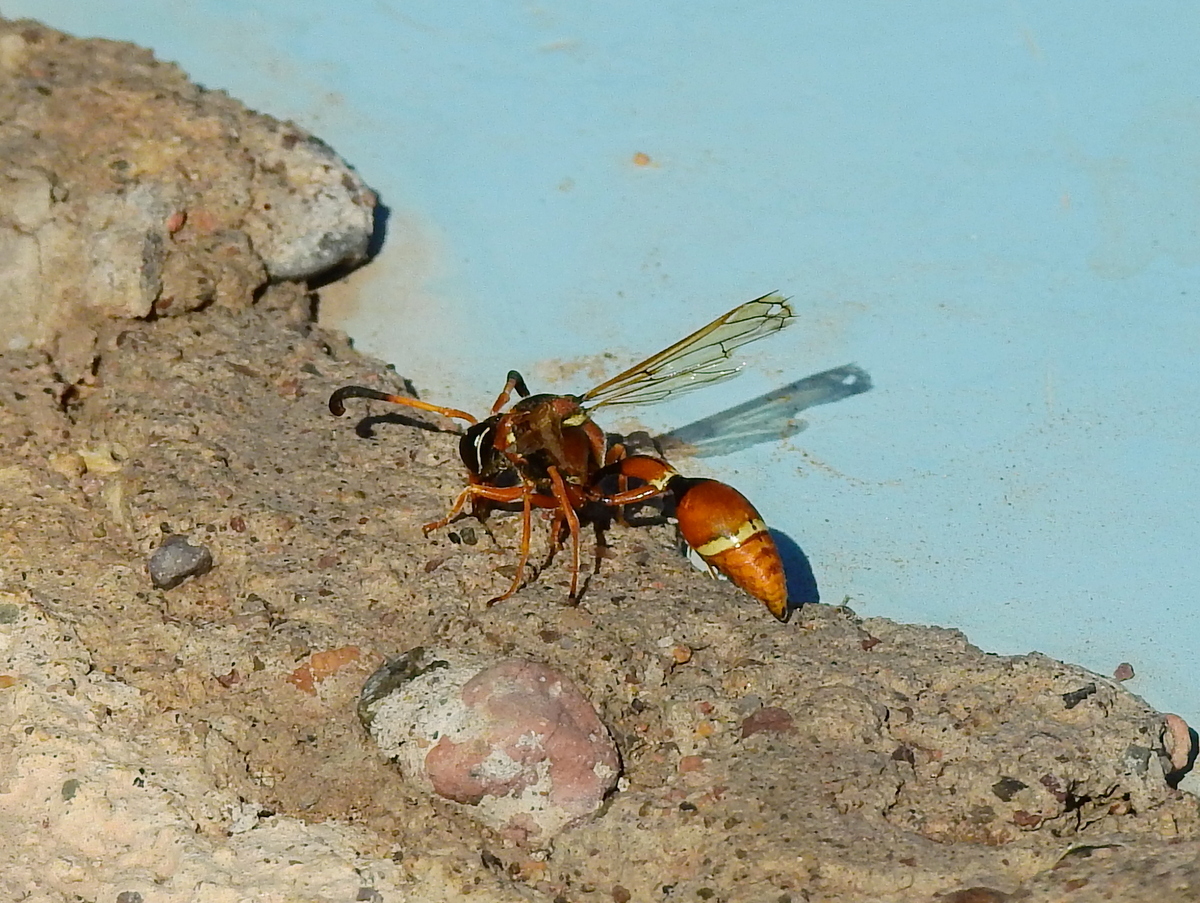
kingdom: Animalia
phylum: Arthropoda
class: Insecta
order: Hymenoptera
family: Eumenidae
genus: Zeta
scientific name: Zeta mendozanus
